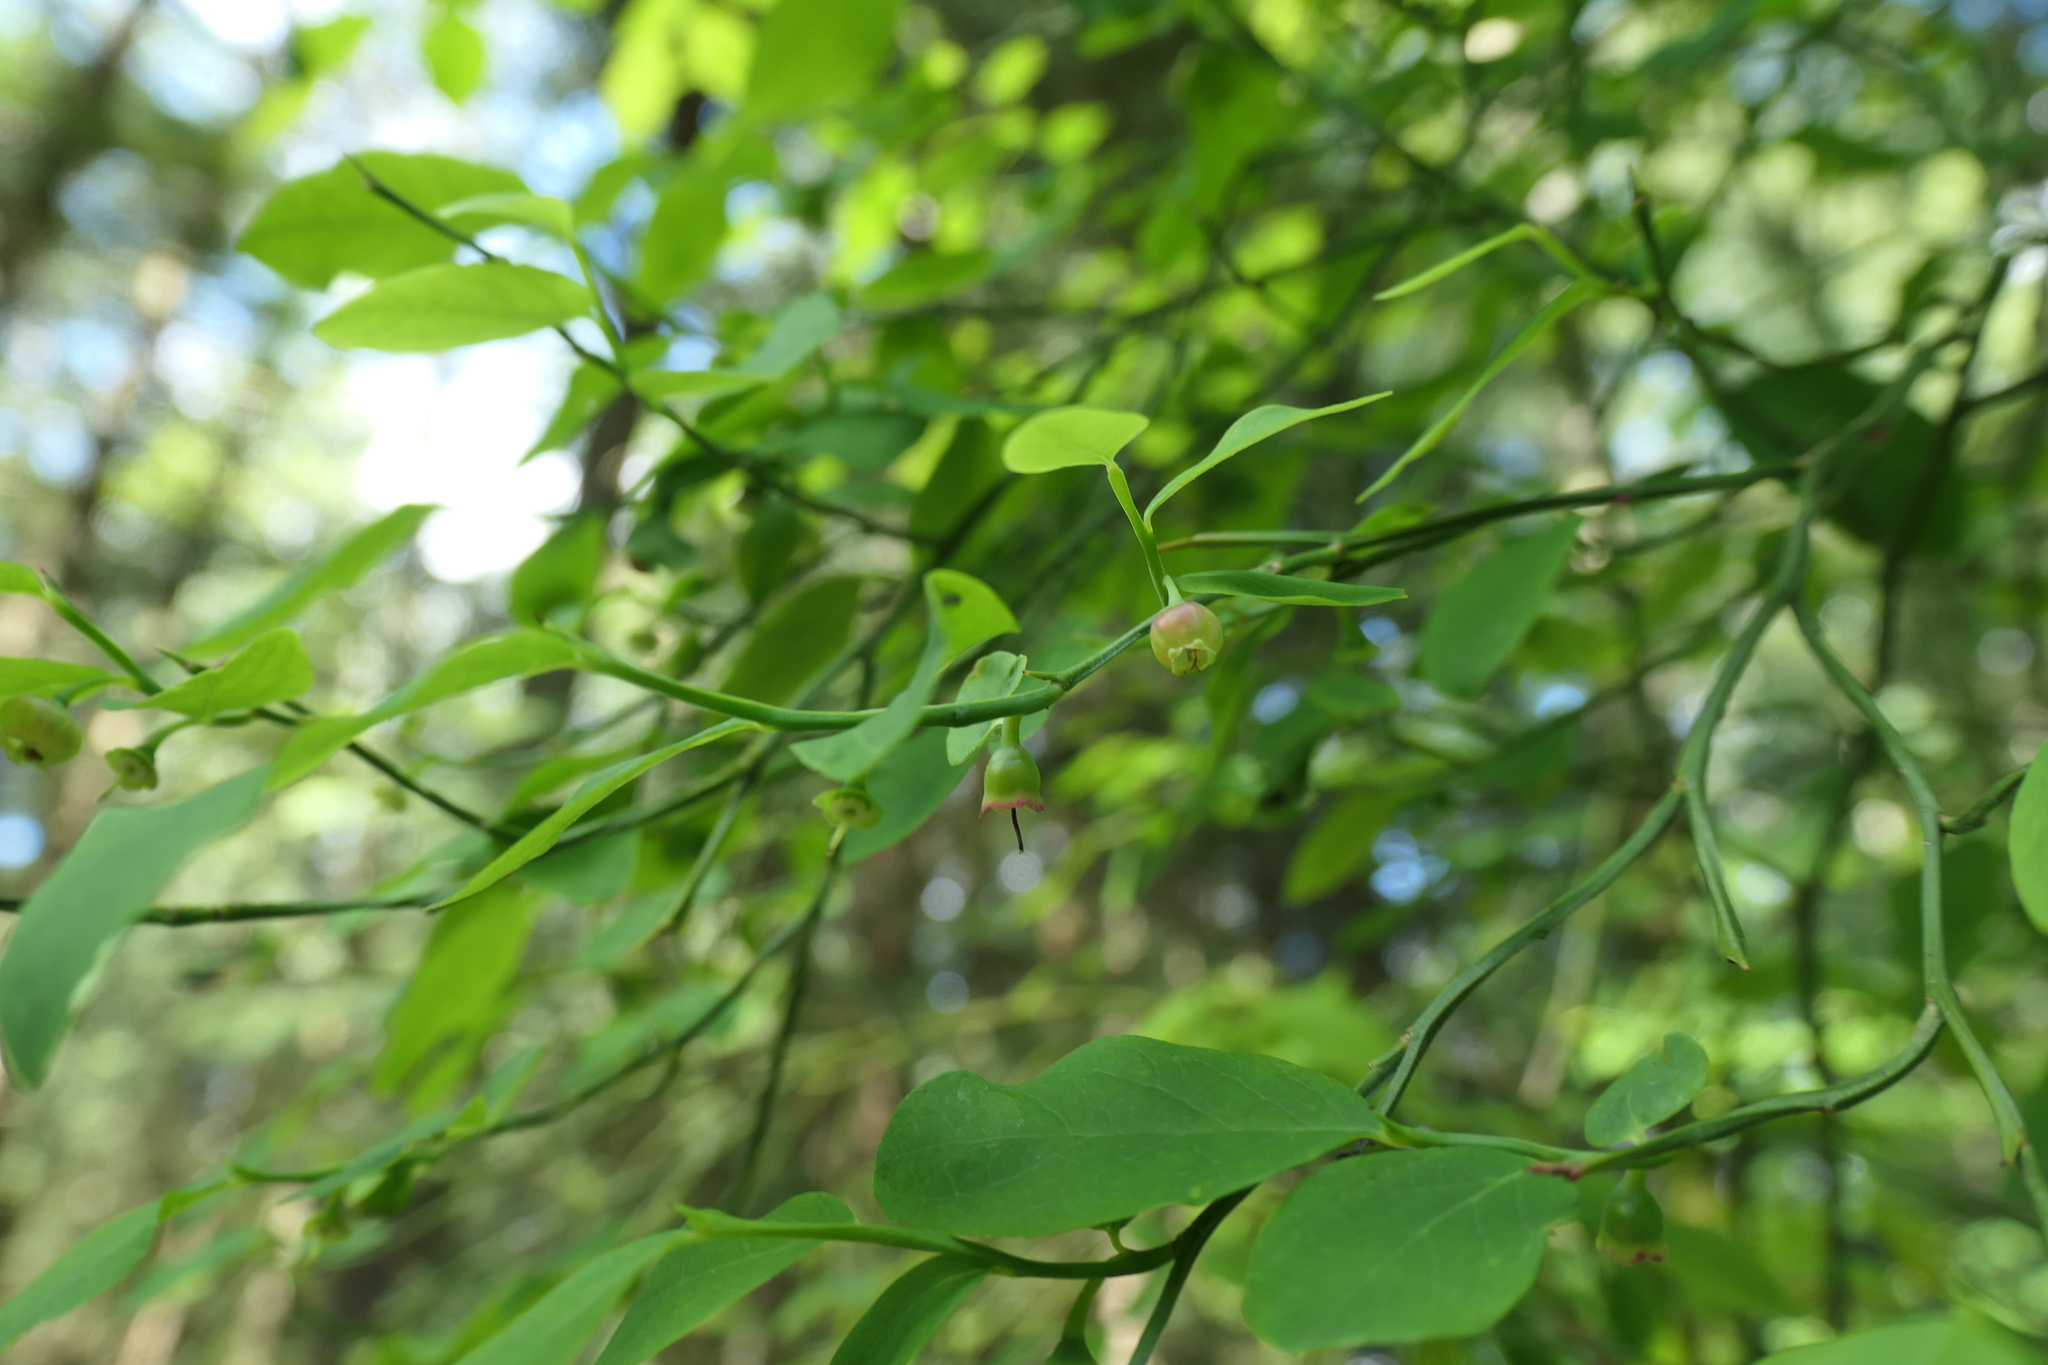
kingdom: Plantae
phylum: Tracheophyta
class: Magnoliopsida
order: Ericales
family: Ericaceae
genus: Vaccinium
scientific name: Vaccinium parvifolium
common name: Red-huckleberry
